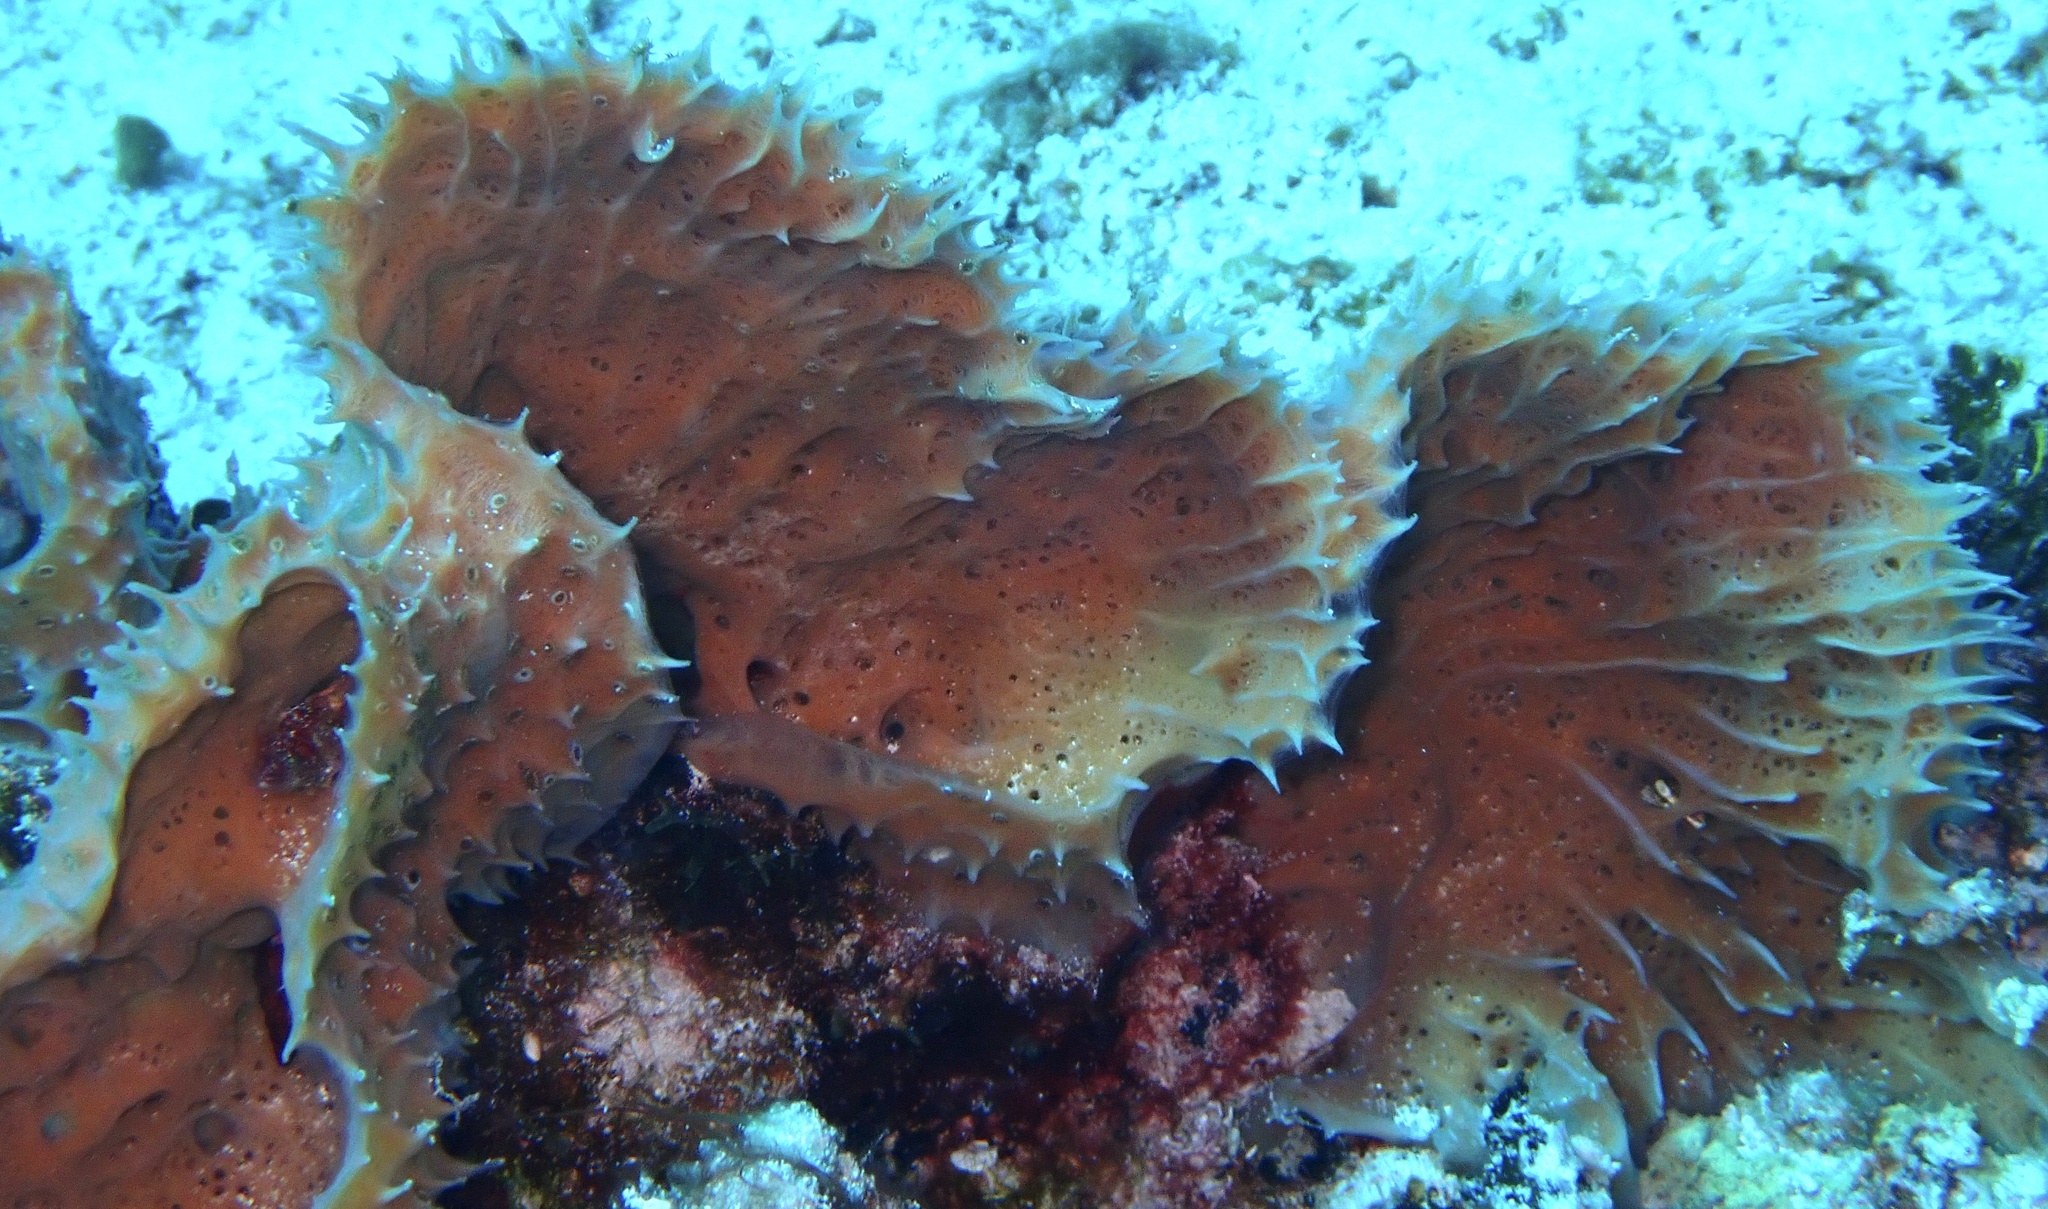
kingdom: Animalia
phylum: Porifera
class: Demospongiae
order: Haplosclerida
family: Callyspongiidae
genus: Callyspongia
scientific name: Callyspongia aculeata
